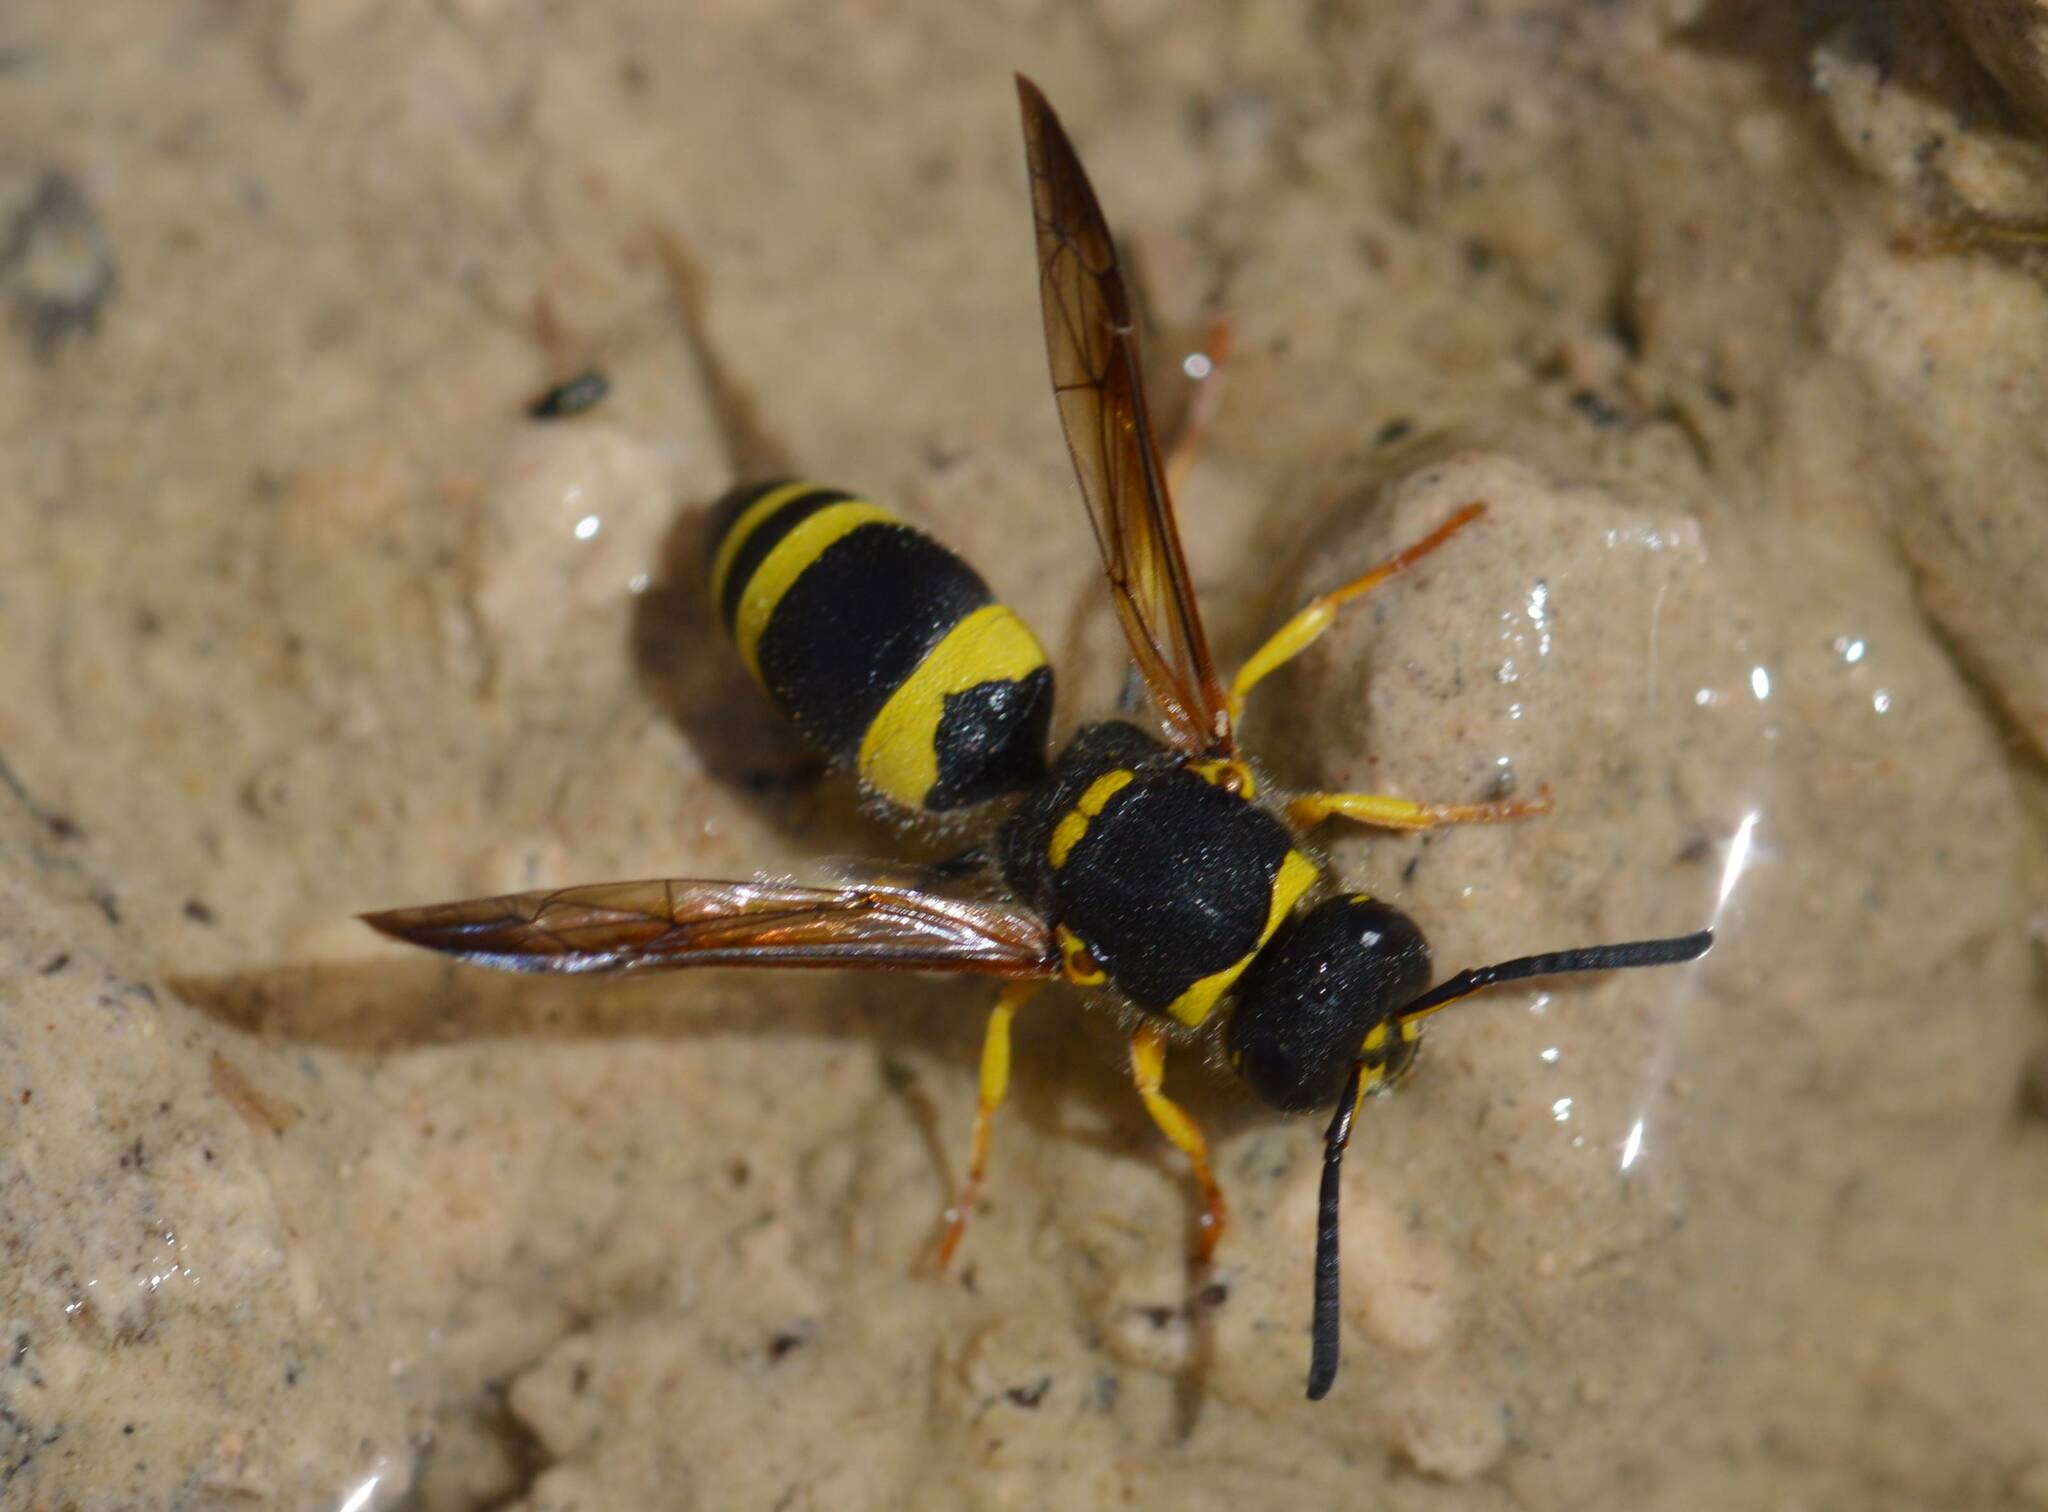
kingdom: Animalia
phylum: Arthropoda
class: Insecta
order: Hymenoptera
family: Vespidae
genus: Ancistrocerus
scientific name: Ancistrocerus
